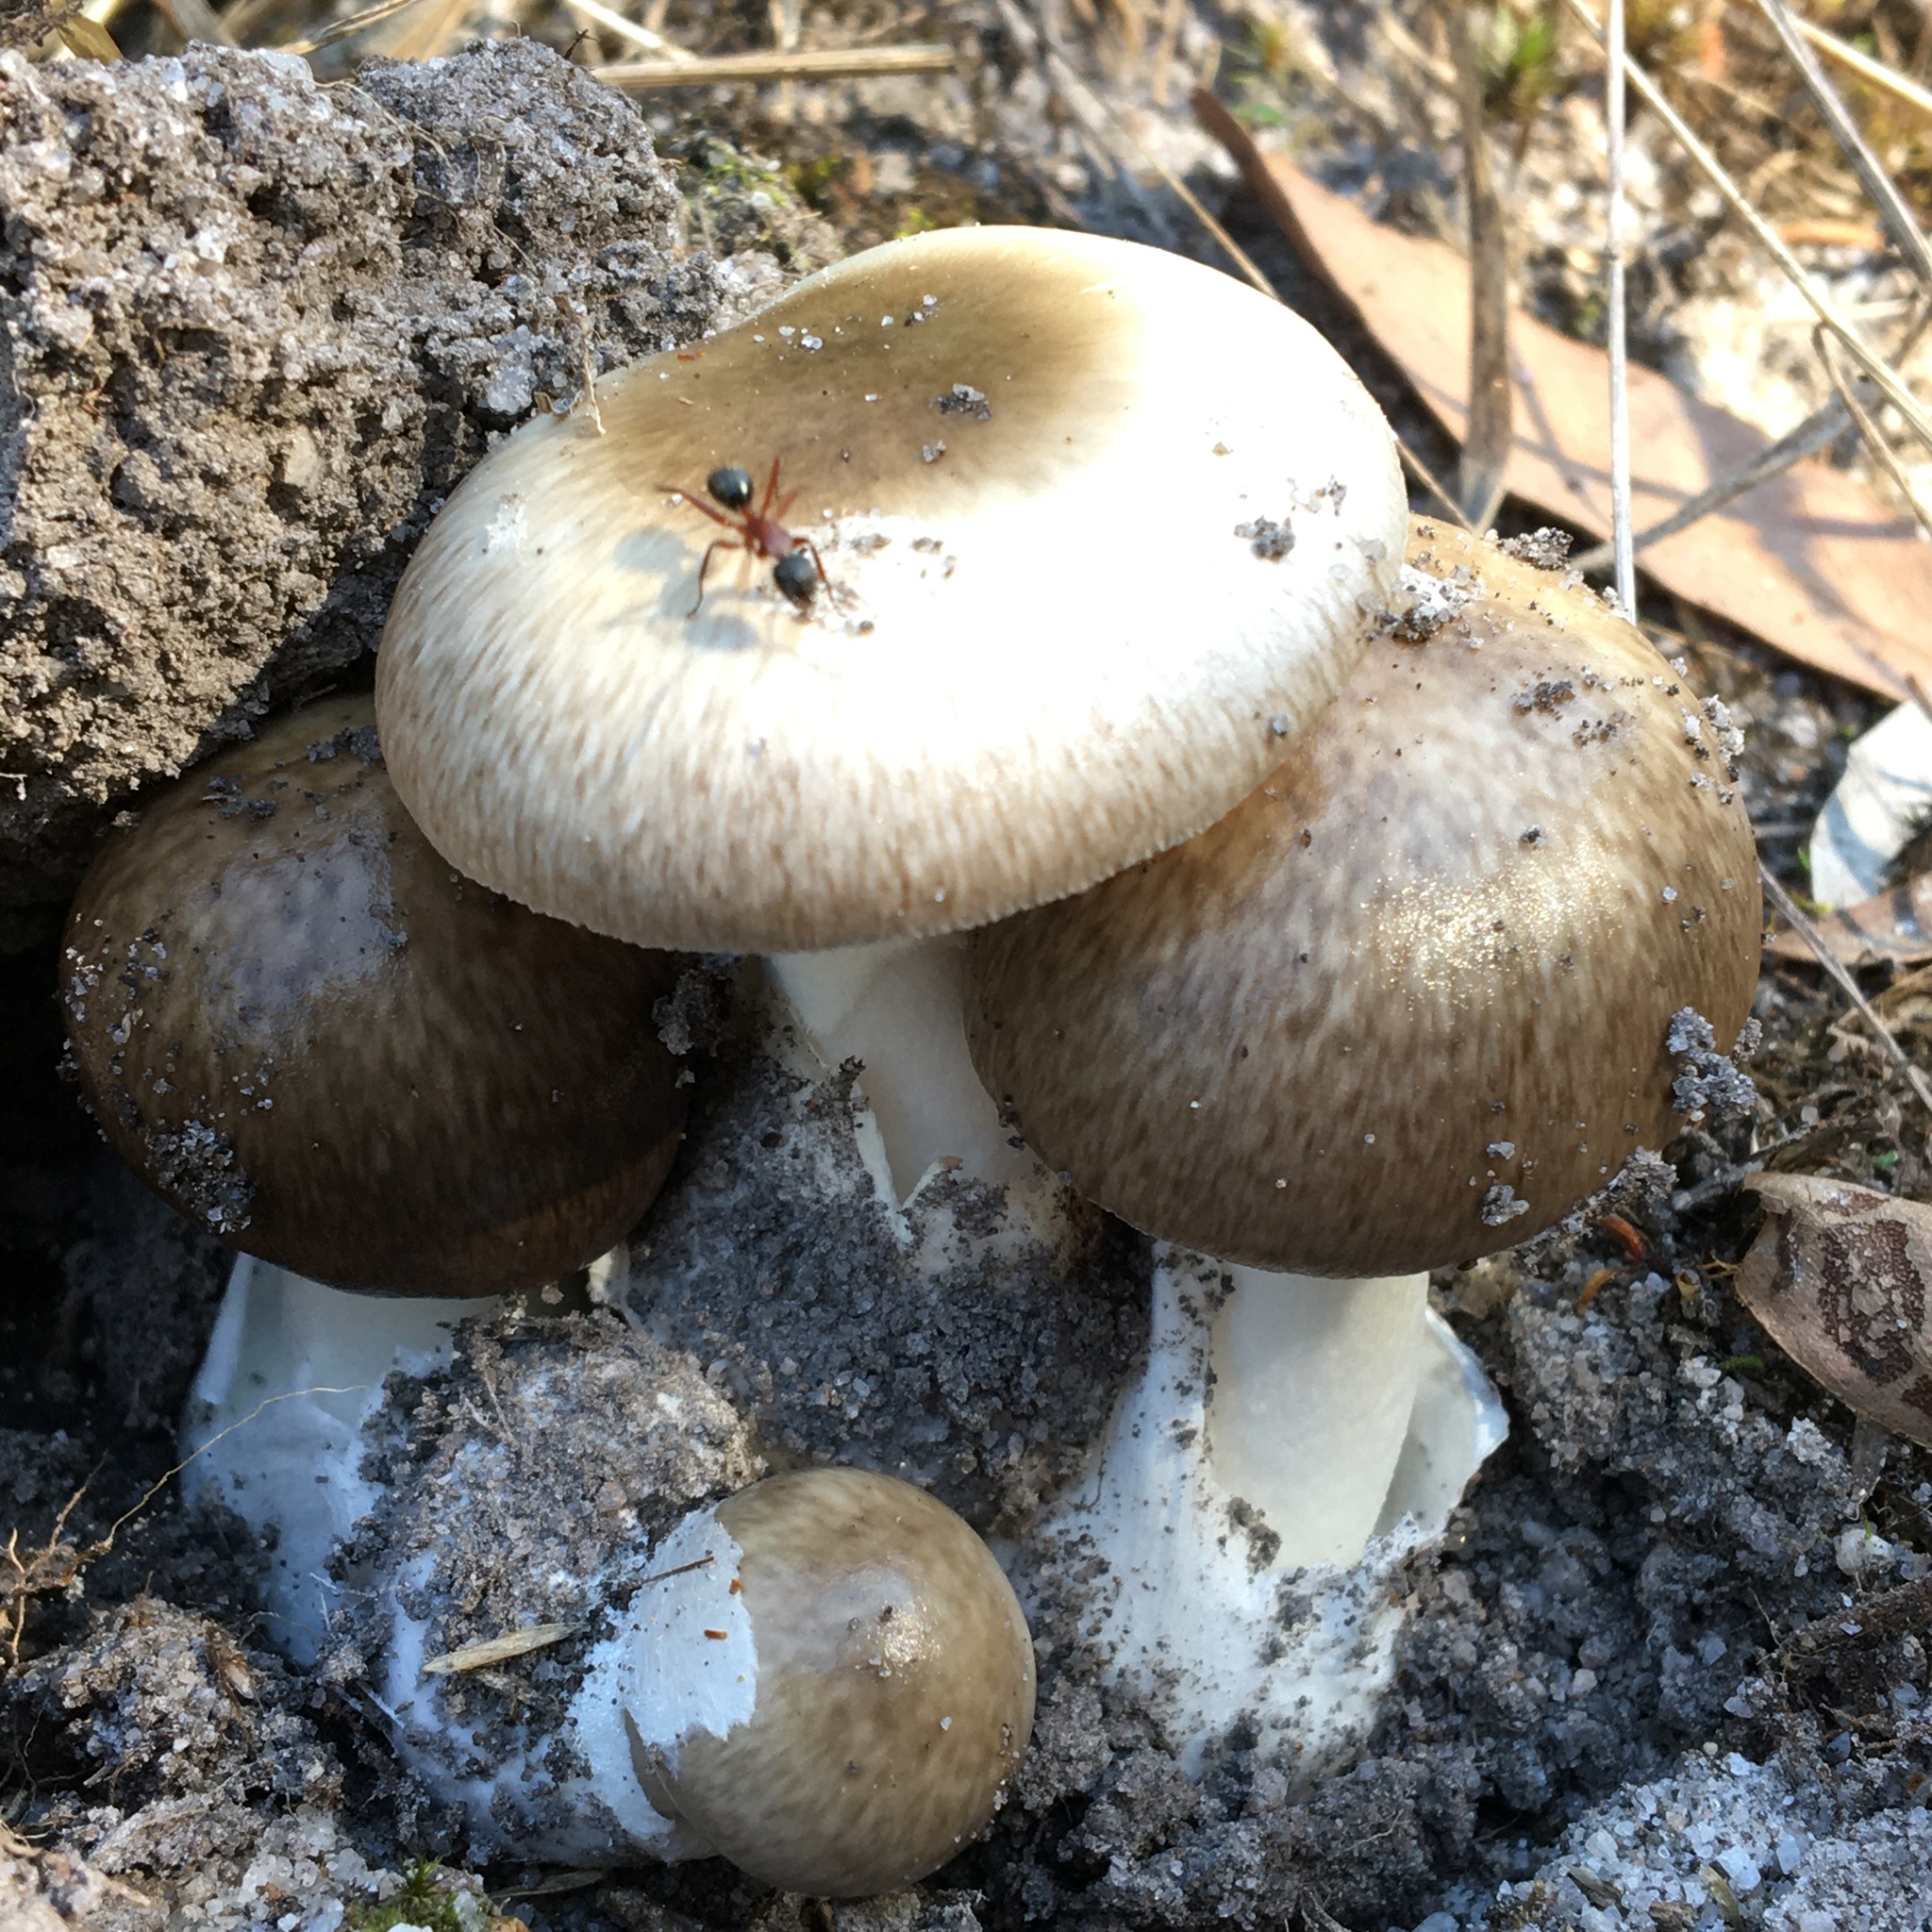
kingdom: Fungi
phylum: Basidiomycota
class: Agaricomycetes
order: Agaricales
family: Amanitaceae
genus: Amanita
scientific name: Amanita marmorata
